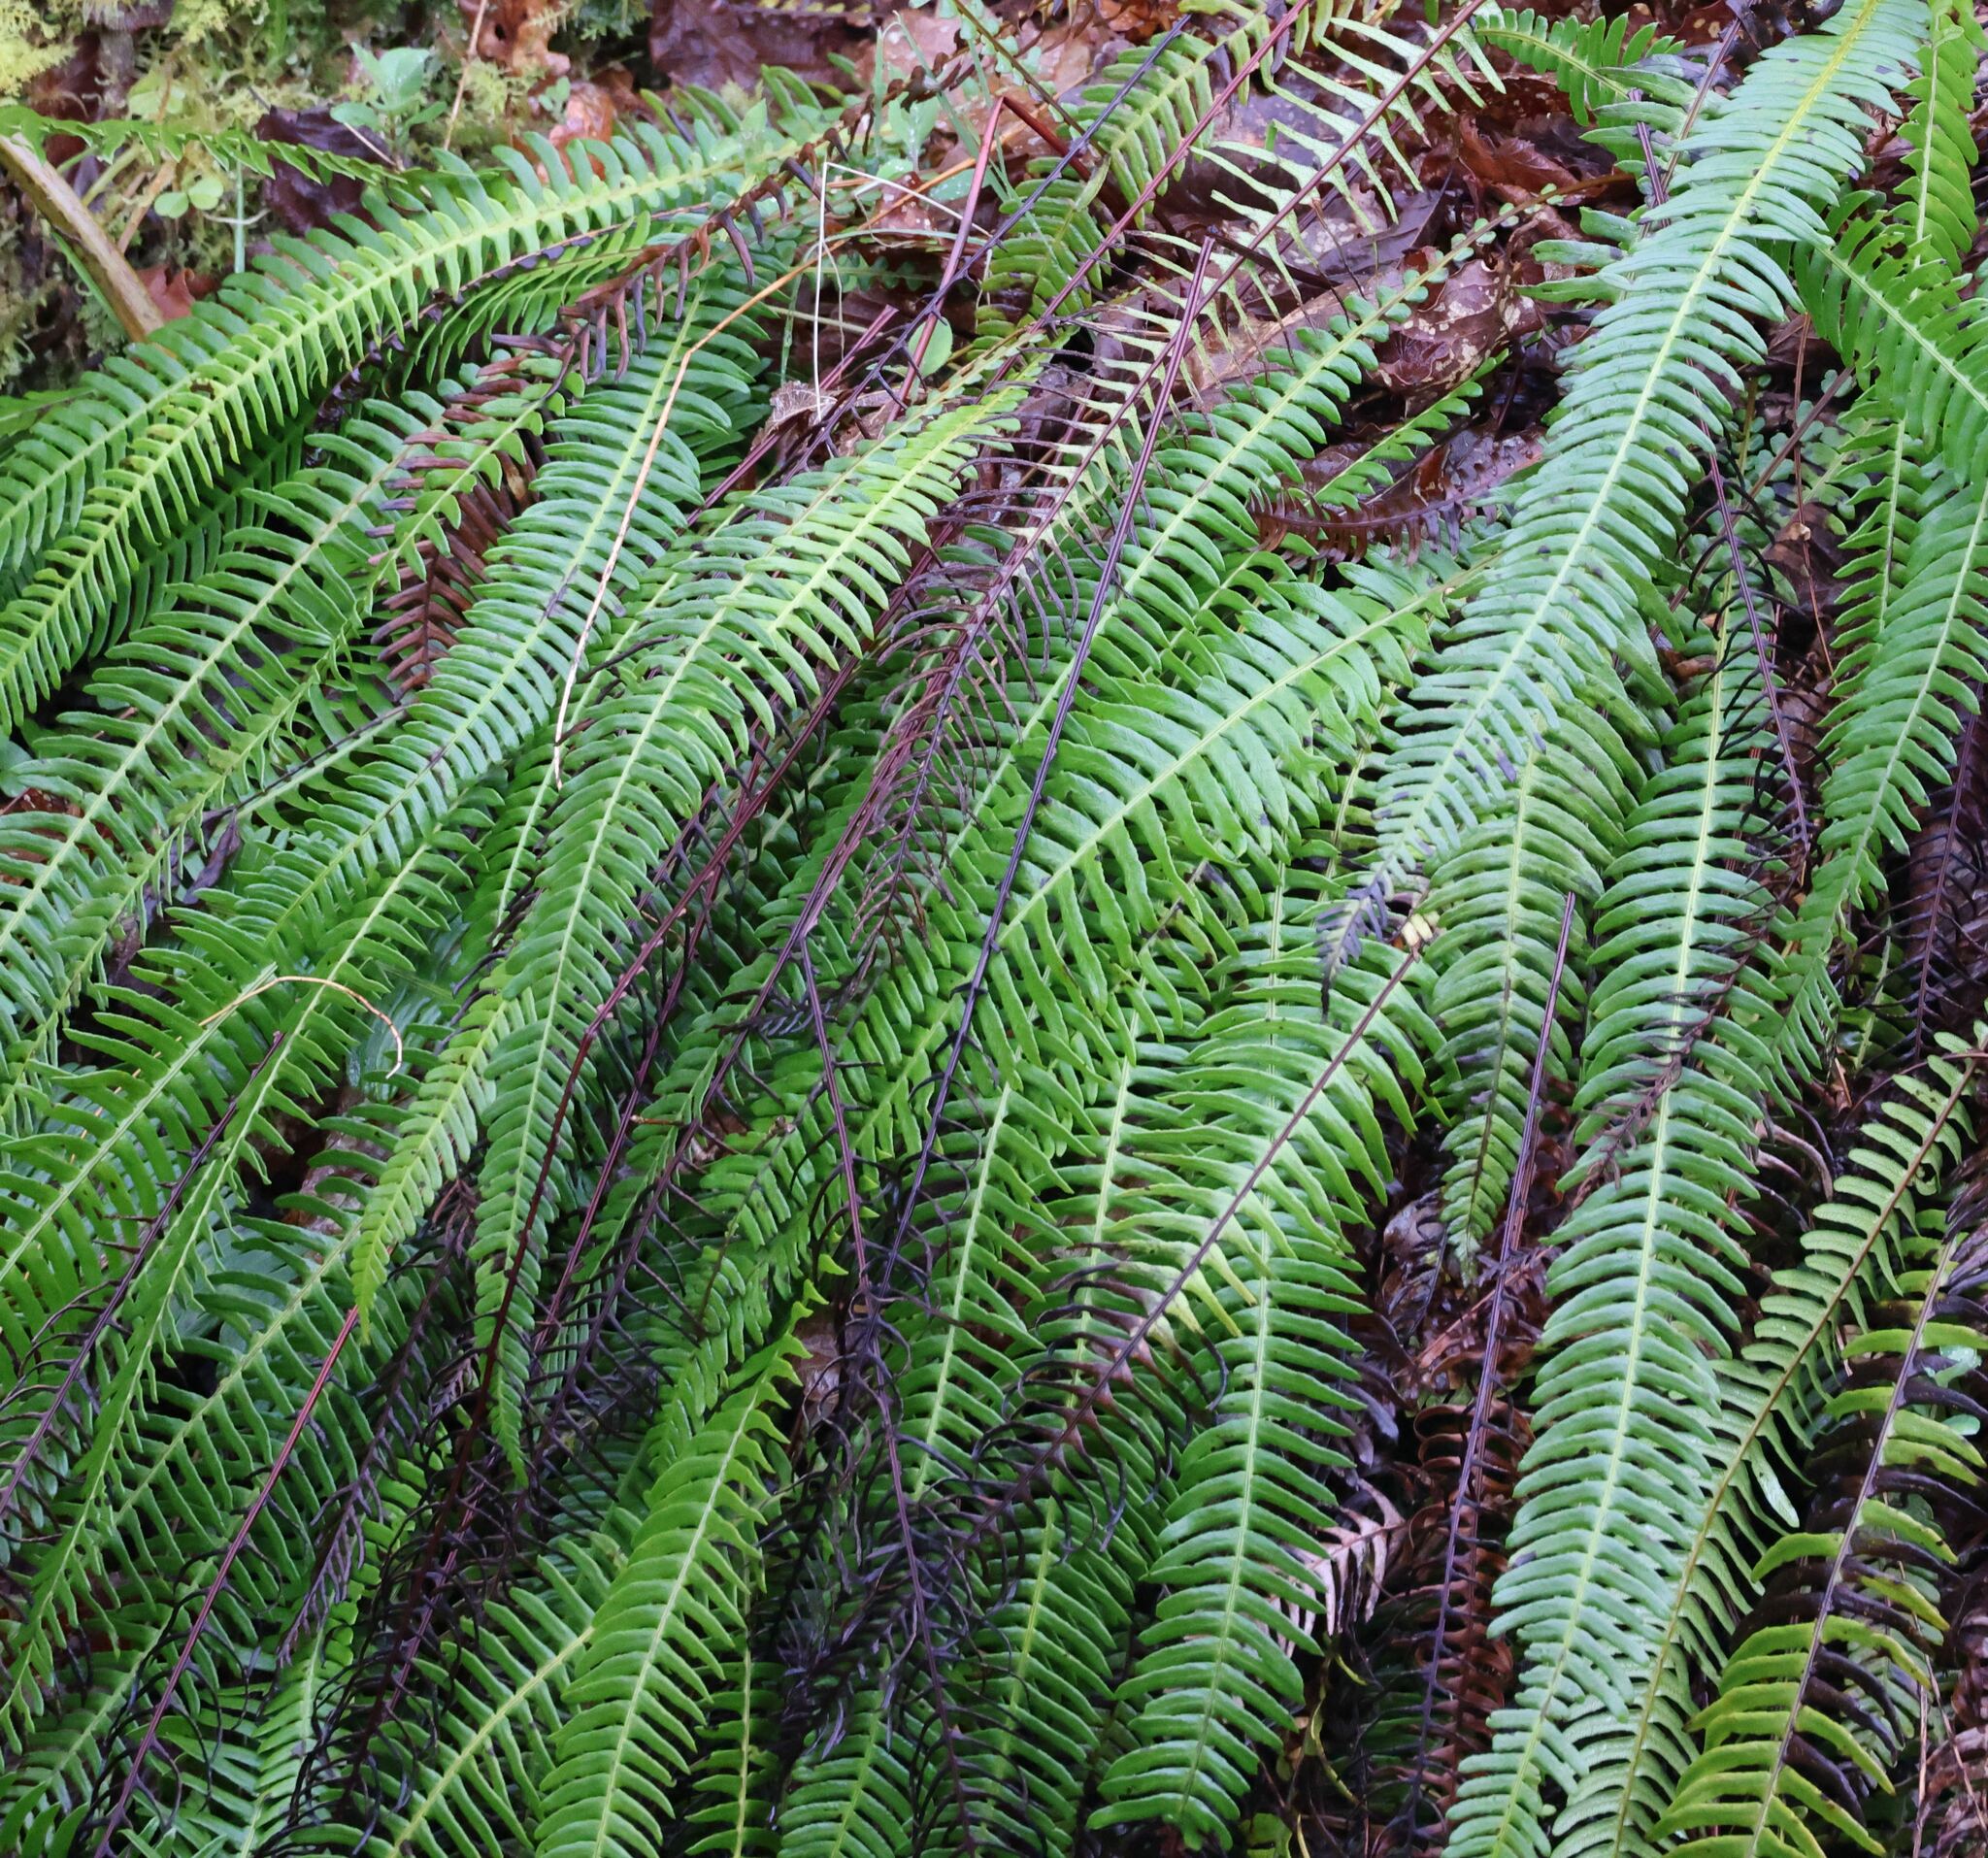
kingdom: Plantae
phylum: Tracheophyta
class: Polypodiopsida
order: Polypodiales
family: Blechnaceae
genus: Struthiopteris
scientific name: Struthiopteris spicant
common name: Deer fern
